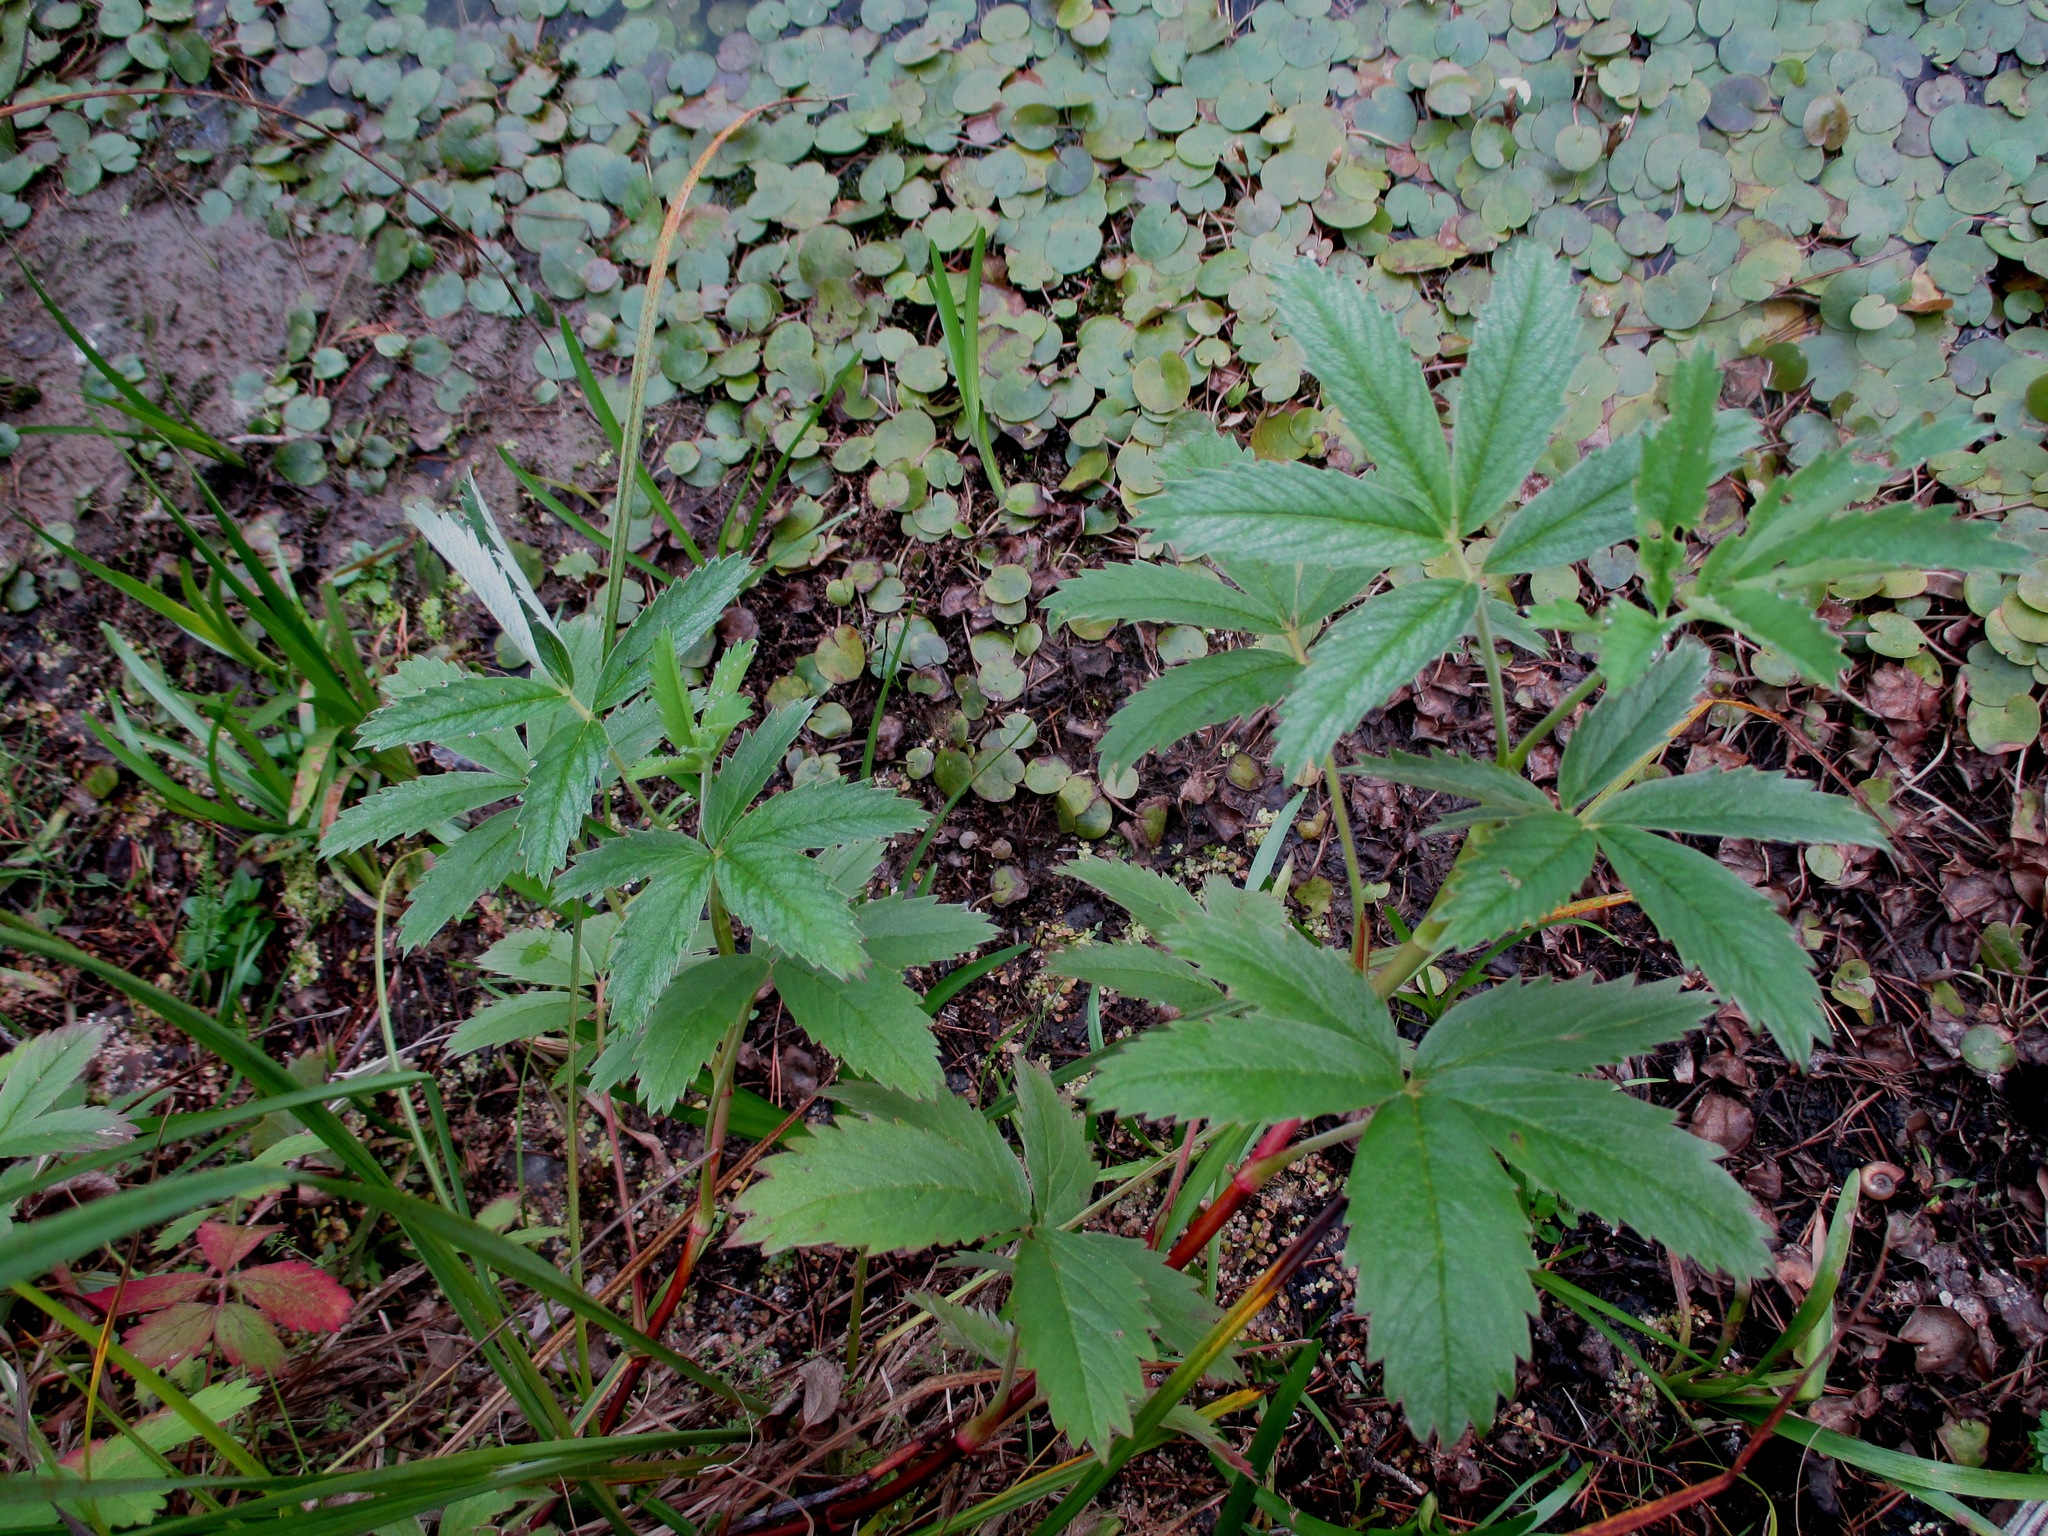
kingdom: Plantae
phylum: Tracheophyta
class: Magnoliopsida
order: Rosales
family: Rosaceae
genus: Comarum
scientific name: Comarum palustre
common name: Marsh cinquefoil
